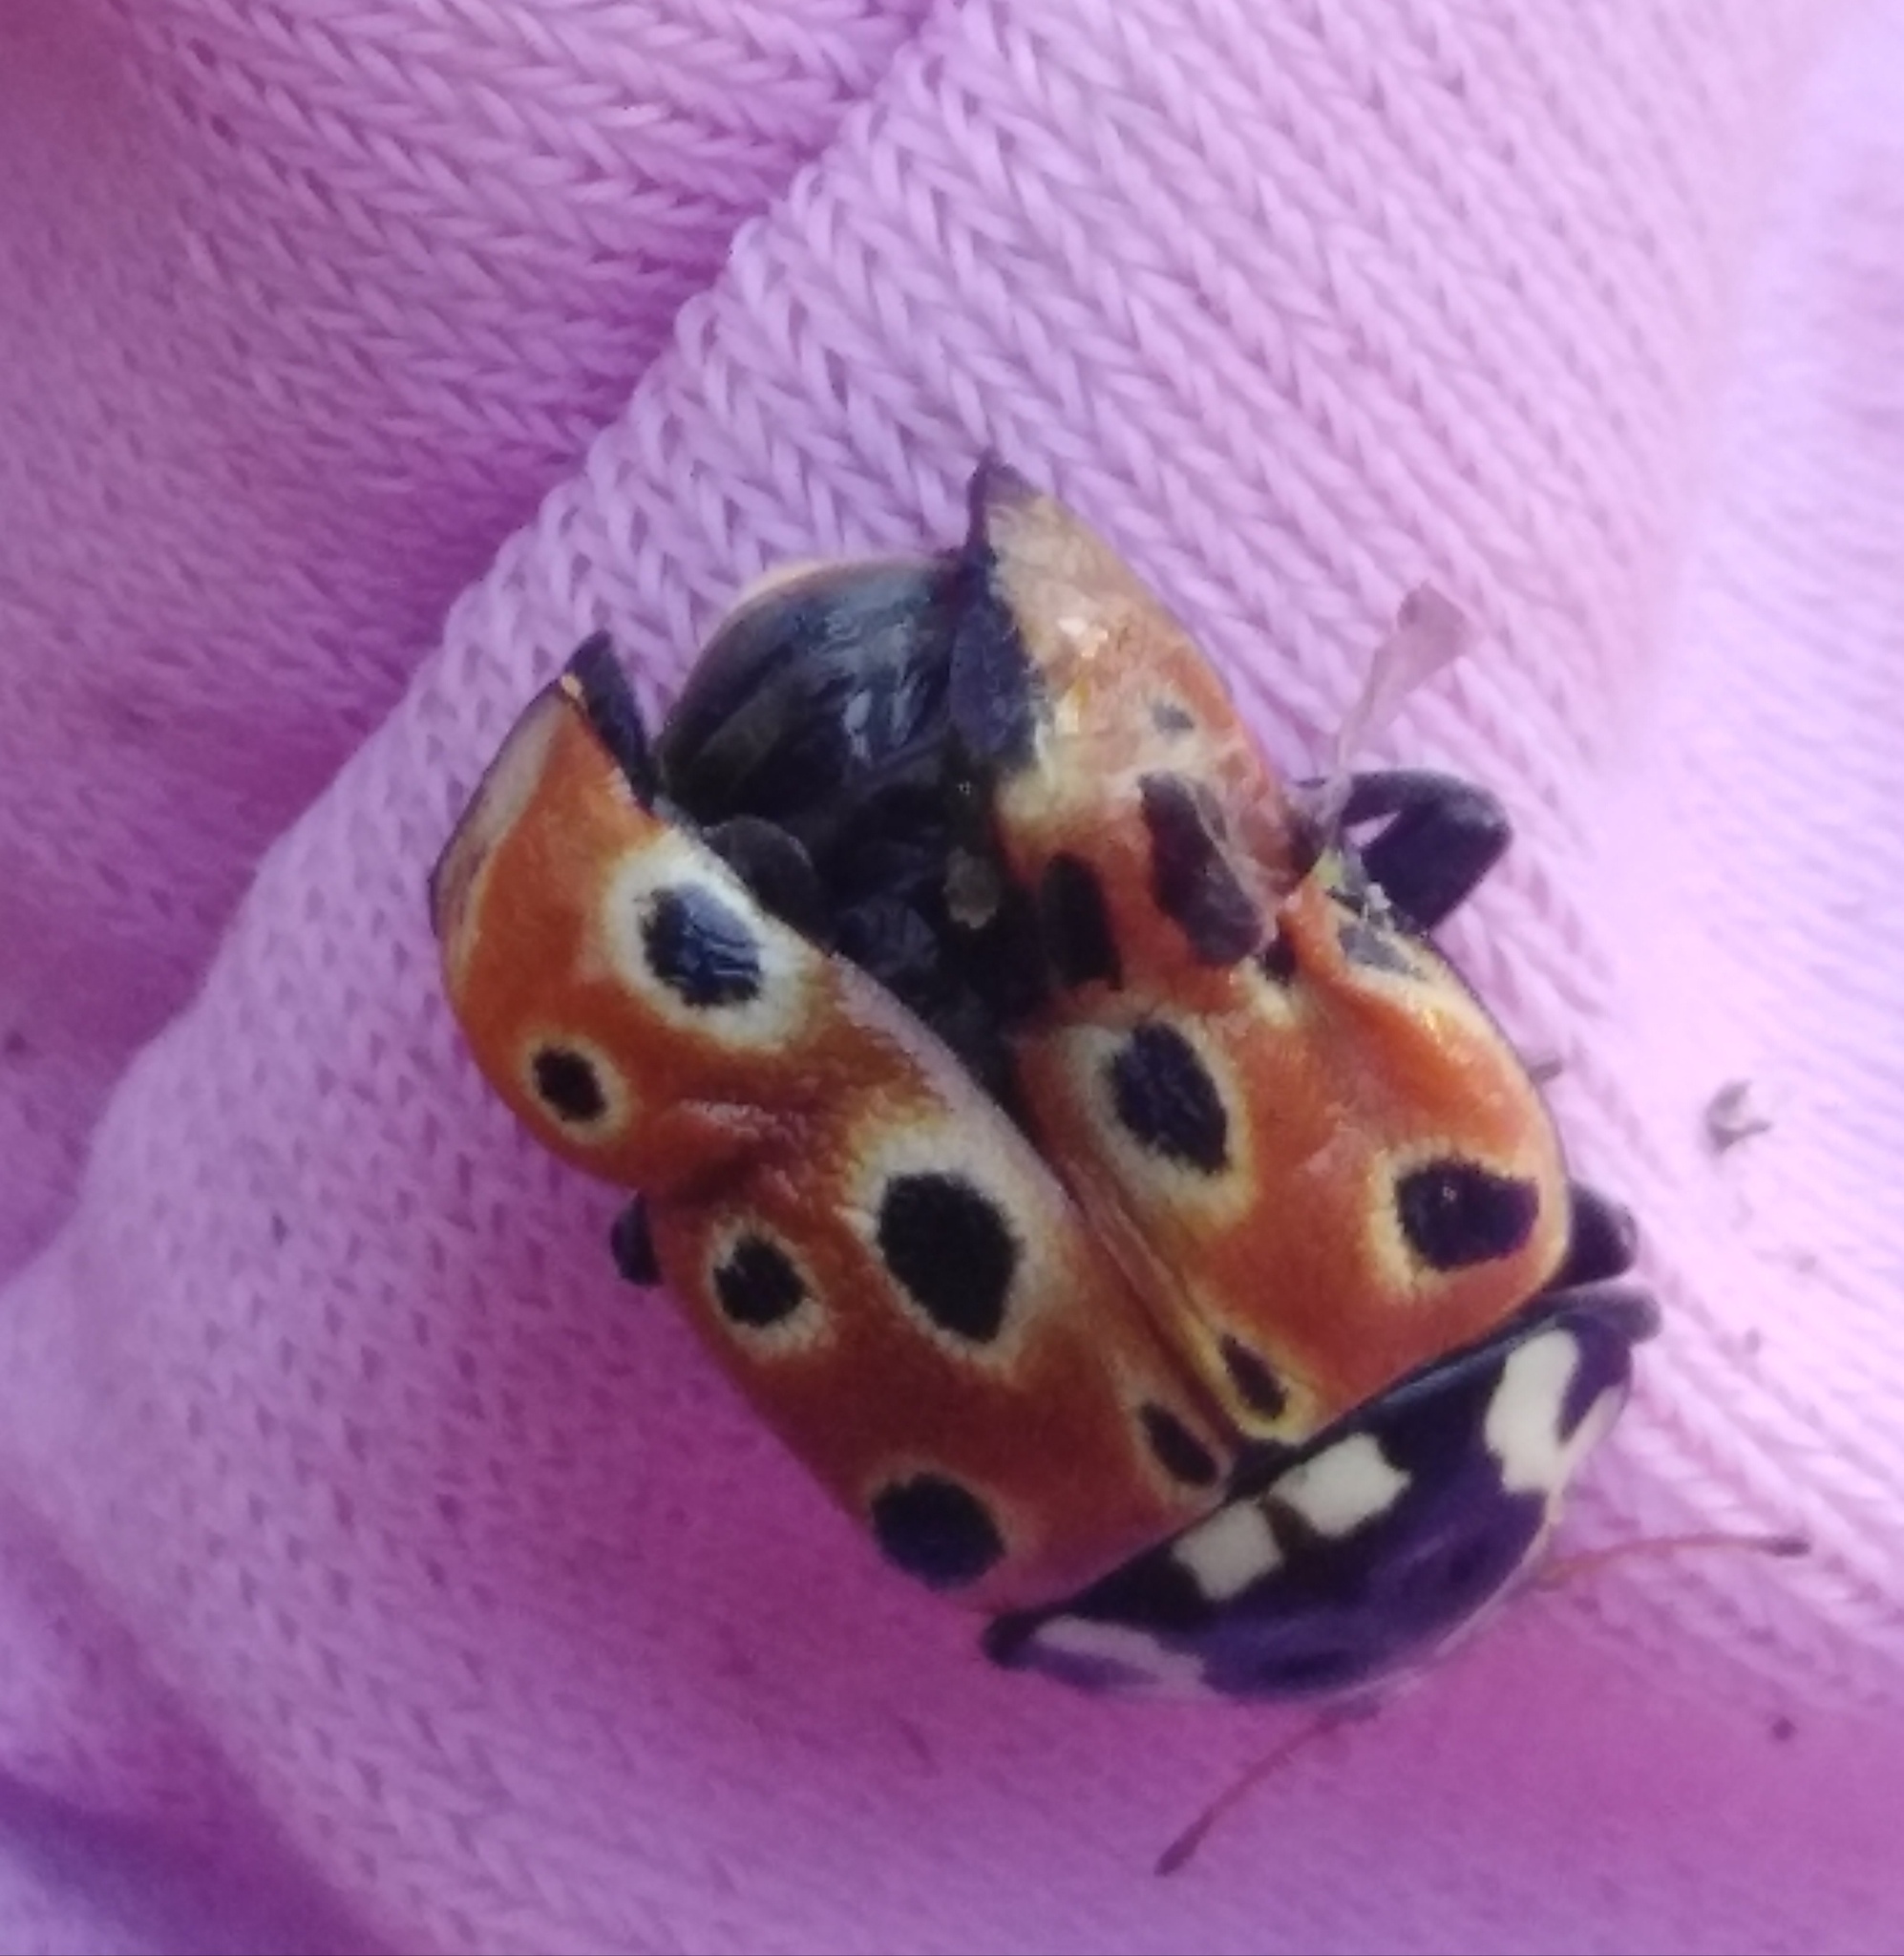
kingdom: Animalia
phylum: Arthropoda
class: Insecta
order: Coleoptera
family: Coccinellidae
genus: Anatis
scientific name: Anatis ocellata
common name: Eyed ladybird
